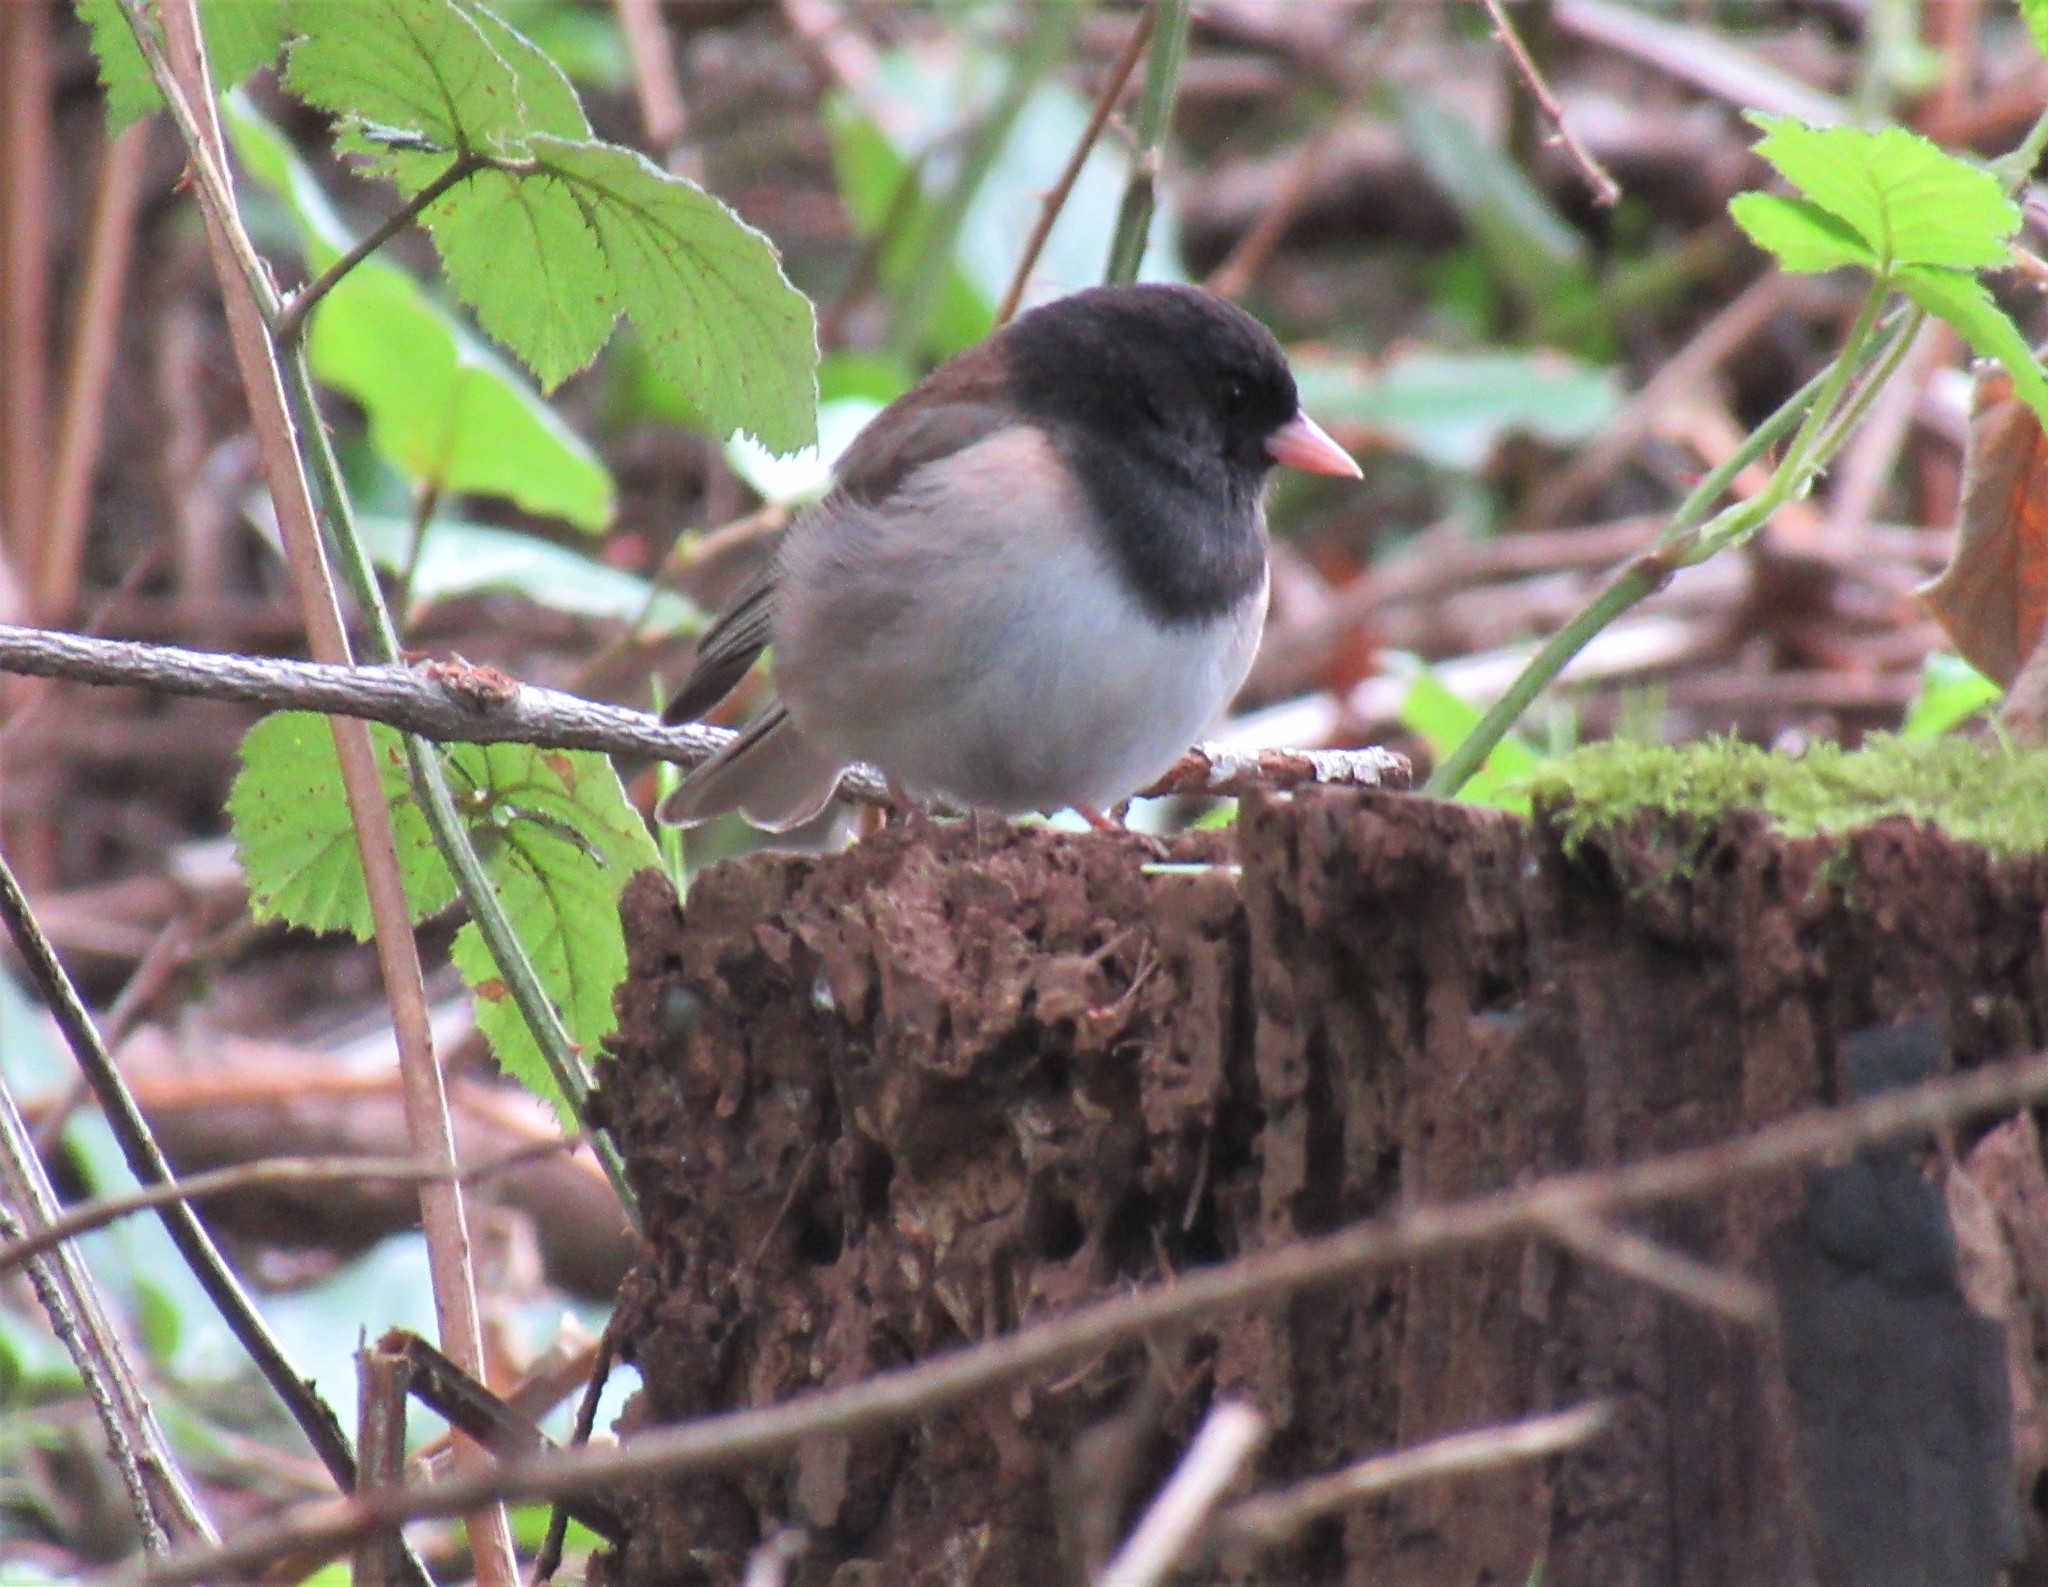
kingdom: Animalia
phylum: Chordata
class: Aves
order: Passeriformes
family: Passerellidae
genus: Junco
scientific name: Junco hyemalis
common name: Dark-eyed junco
